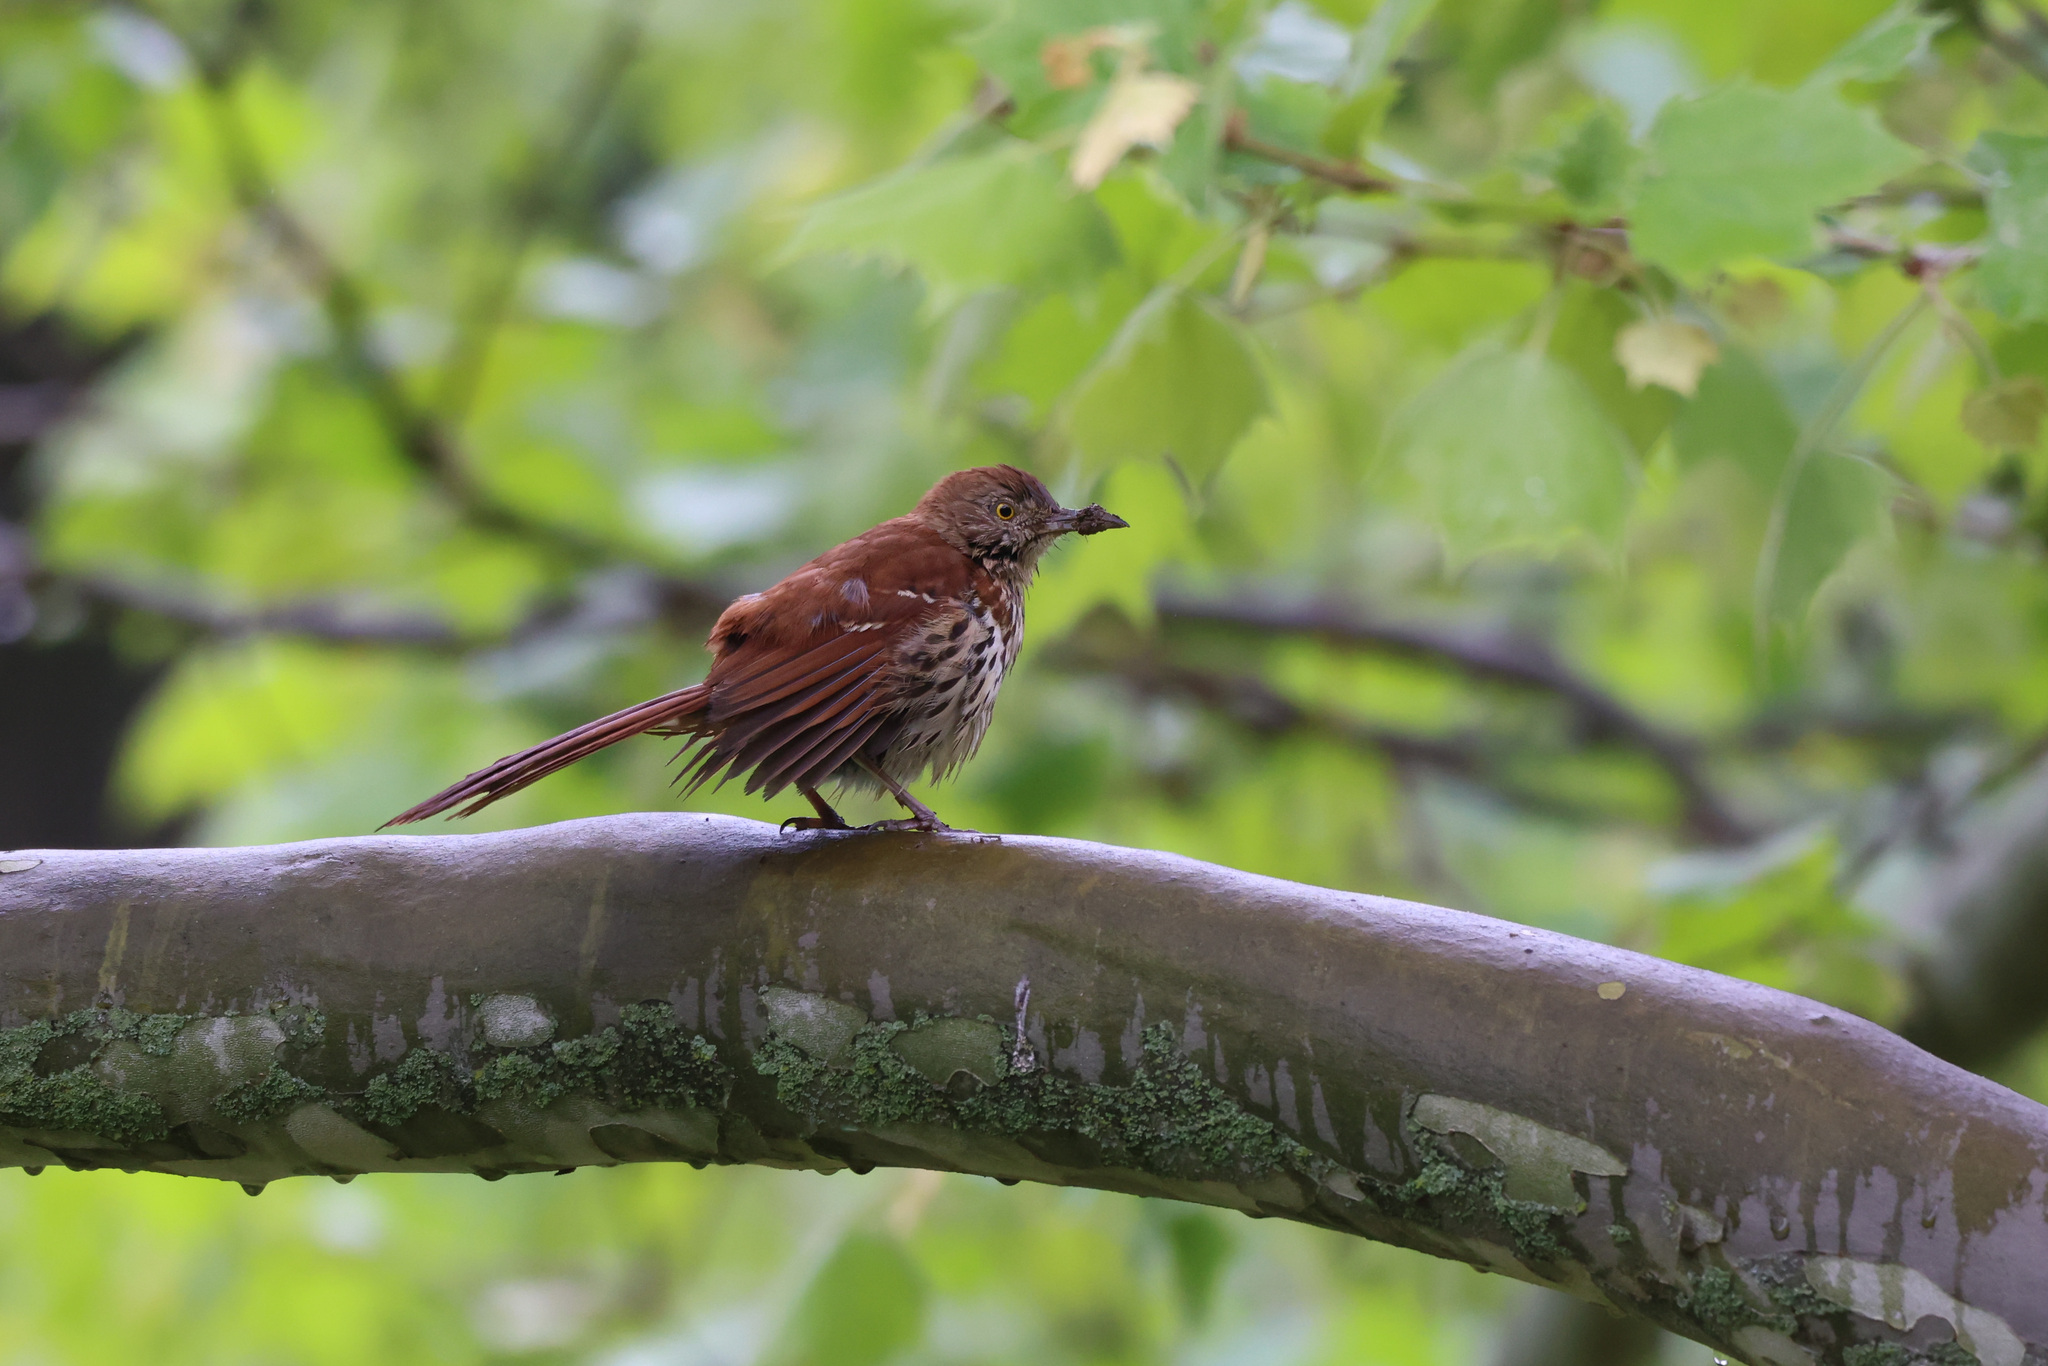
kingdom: Animalia
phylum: Chordata
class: Aves
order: Passeriformes
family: Mimidae
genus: Toxostoma
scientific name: Toxostoma rufum
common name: Brown thrasher
